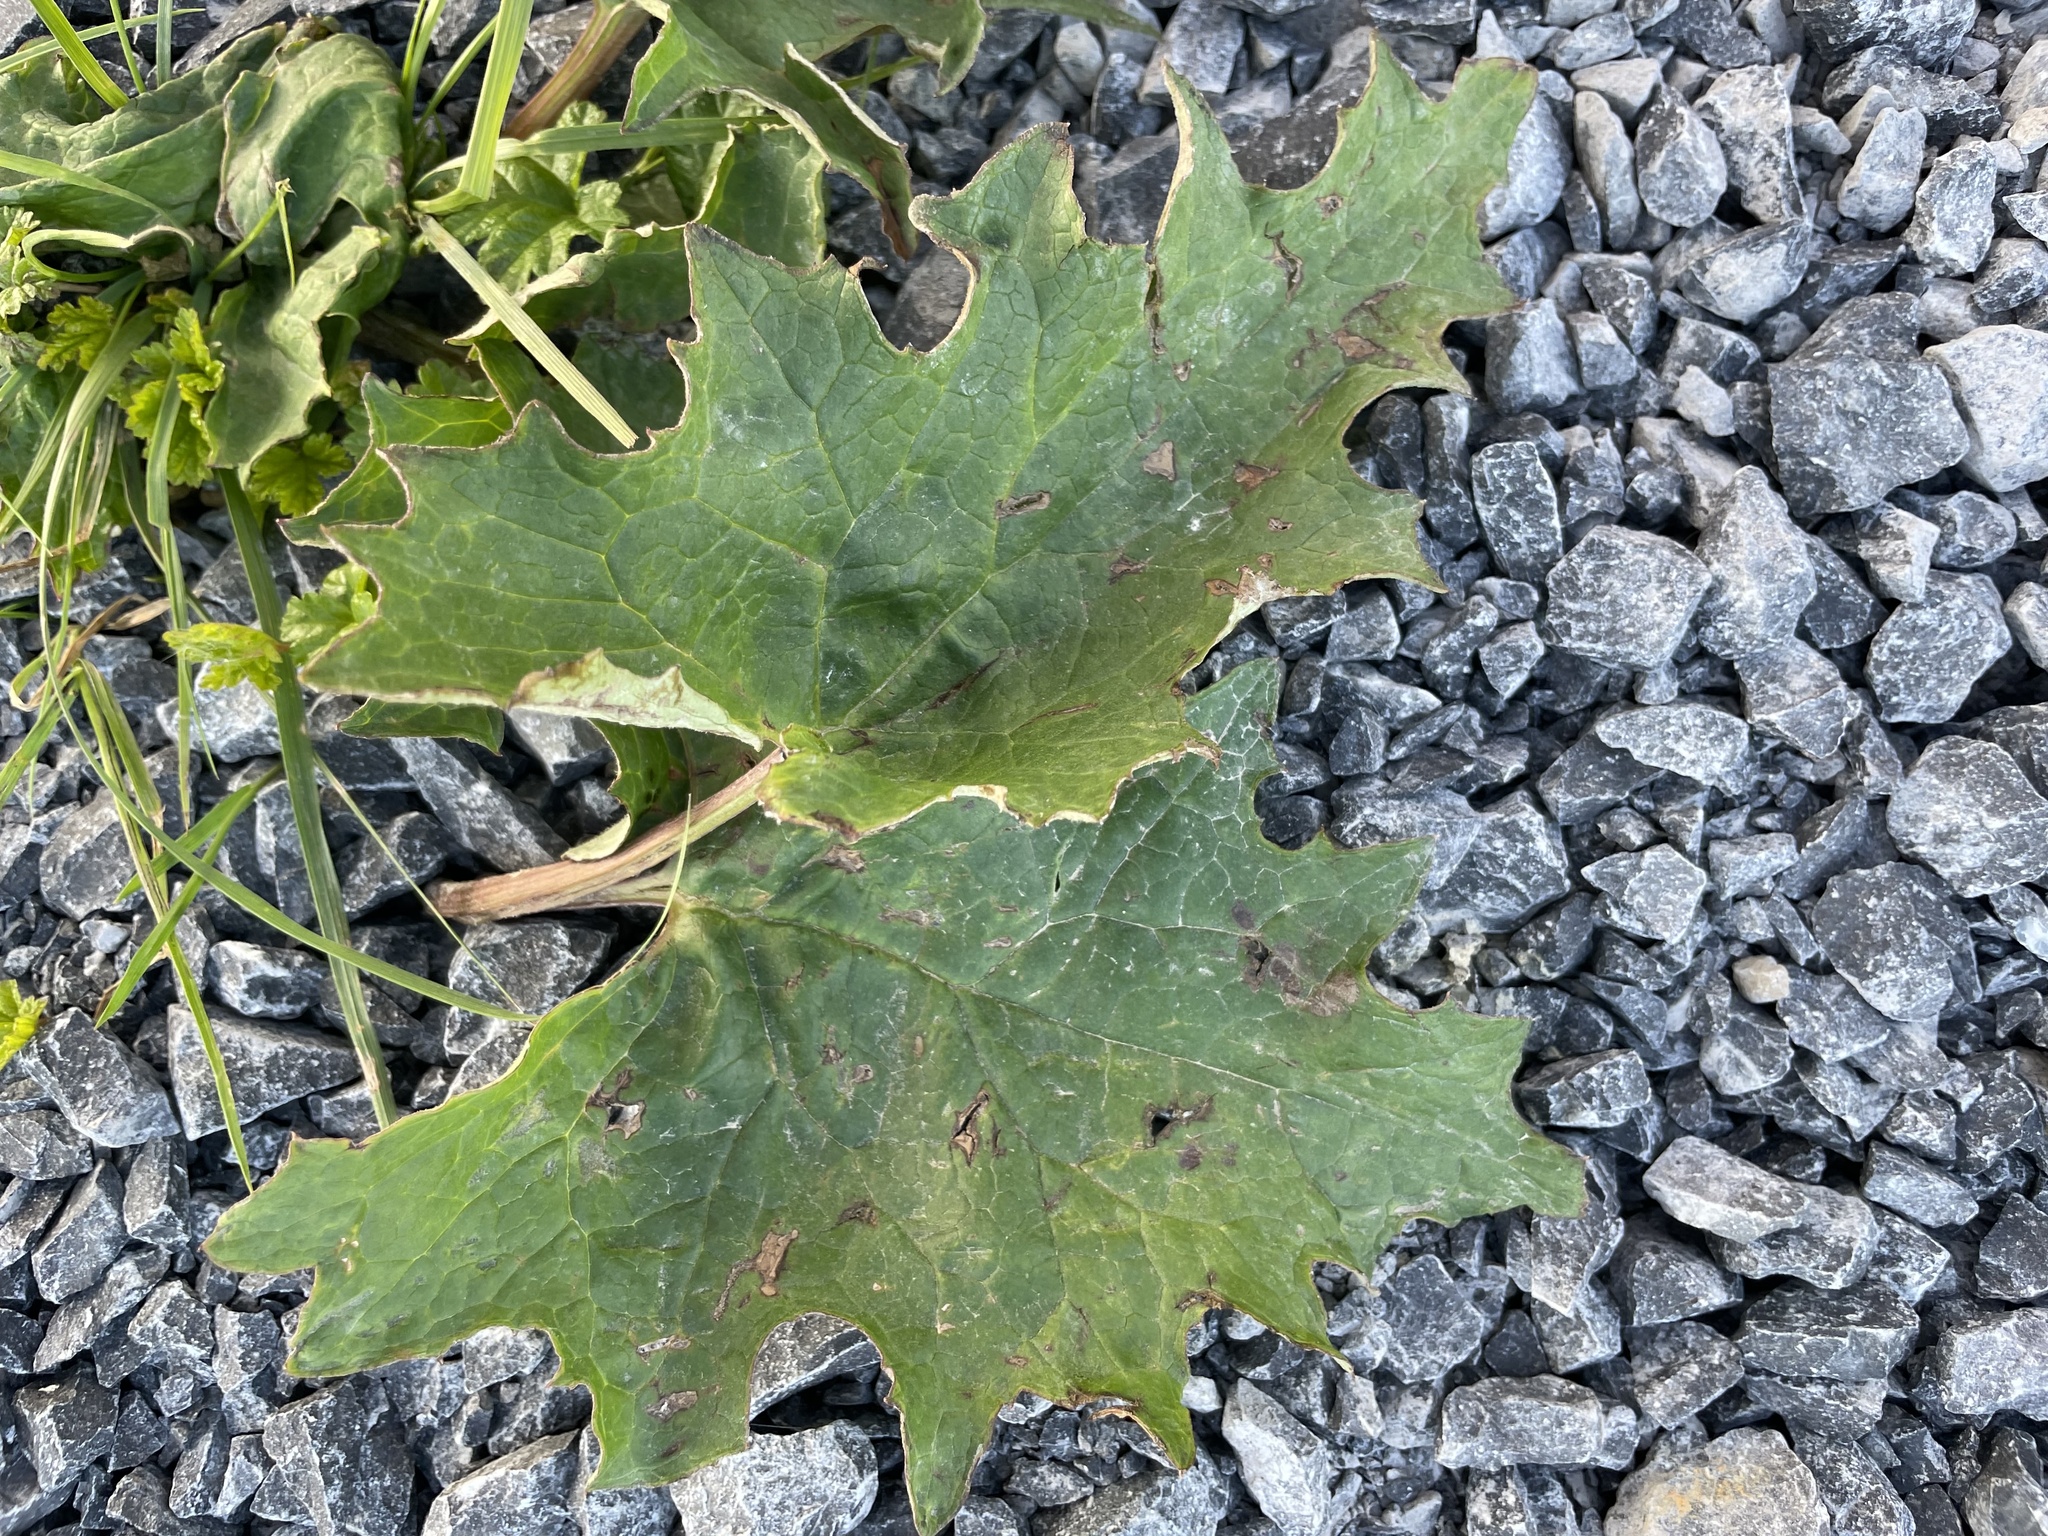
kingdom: Plantae
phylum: Tracheophyta
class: Magnoliopsida
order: Asterales
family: Asteraceae
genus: Petasites
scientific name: Petasites frigidus
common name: Arctic butterbur
